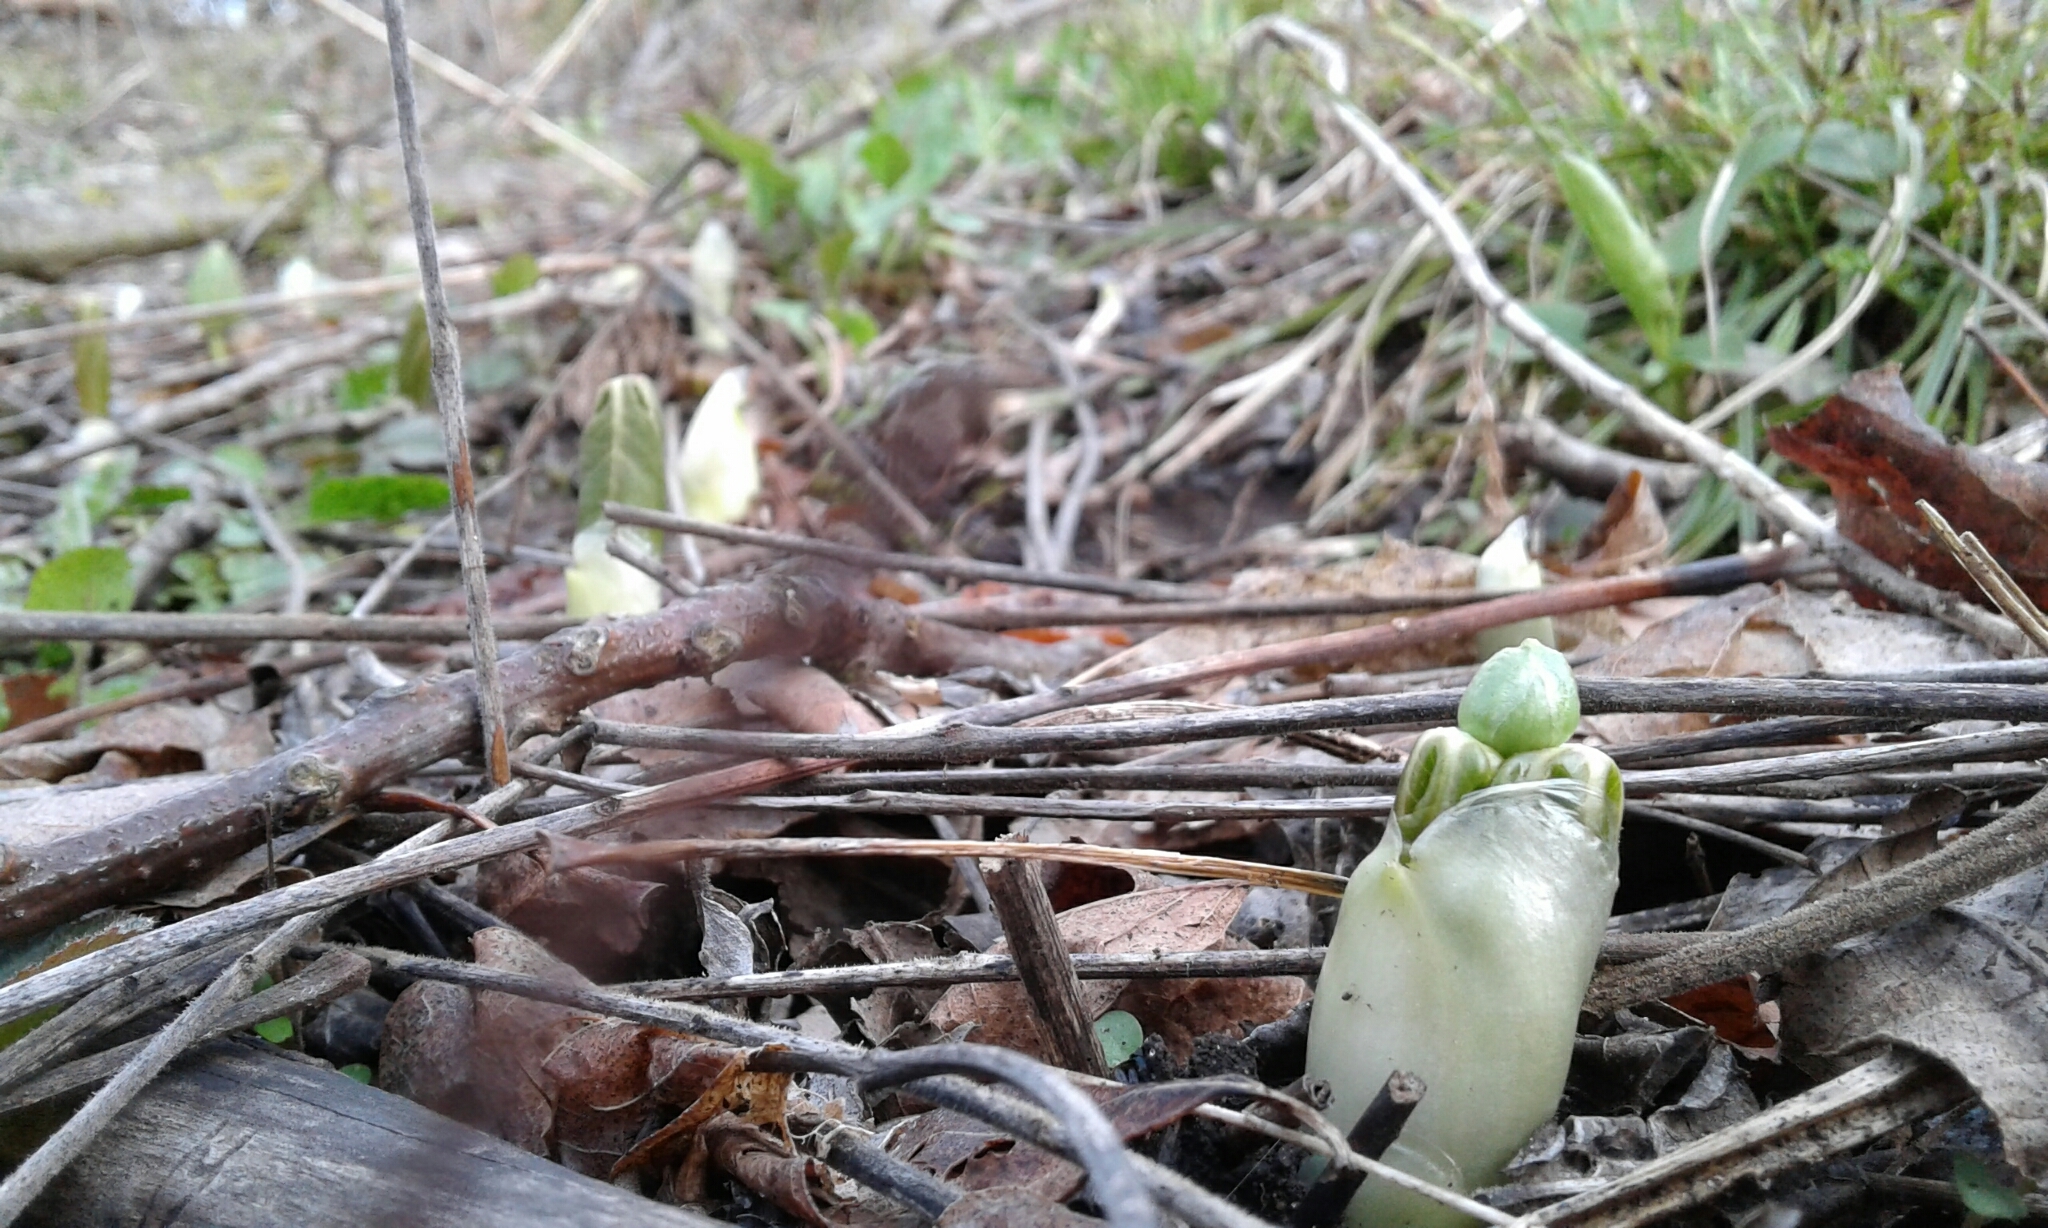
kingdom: Plantae
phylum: Tracheophyta
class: Magnoliopsida
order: Ranunculales
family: Berberidaceae
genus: Podophyllum
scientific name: Podophyllum peltatum
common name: Wild mandrake
